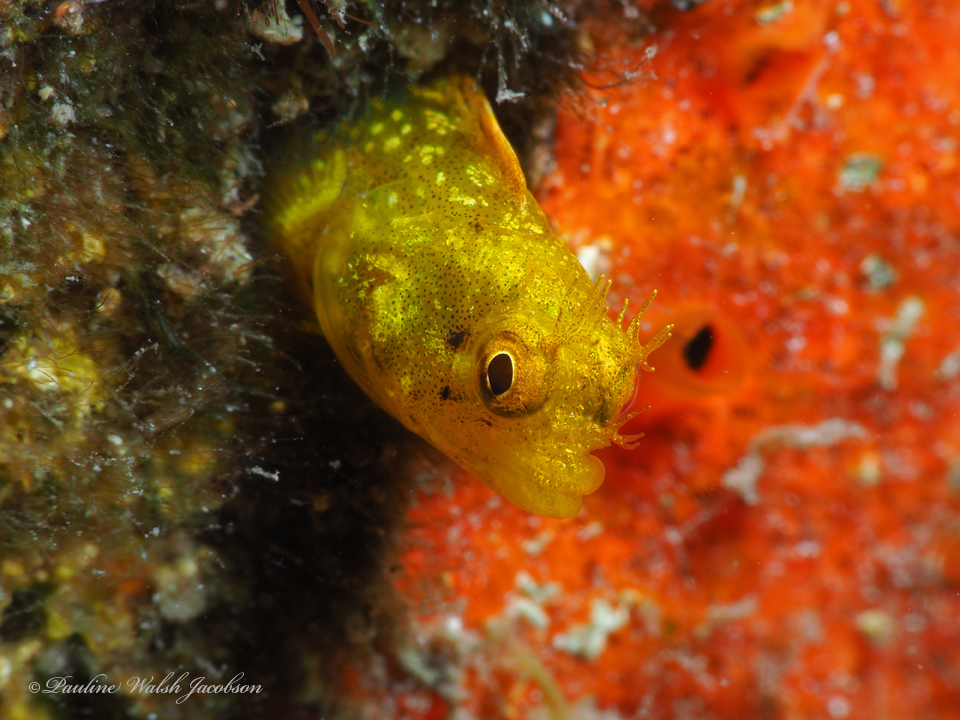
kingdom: Animalia
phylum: Chordata
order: Perciformes
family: Chaenopsidae
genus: Acanthemblemaria
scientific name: Acanthemblemaria aspera
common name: Roughhead blenny
